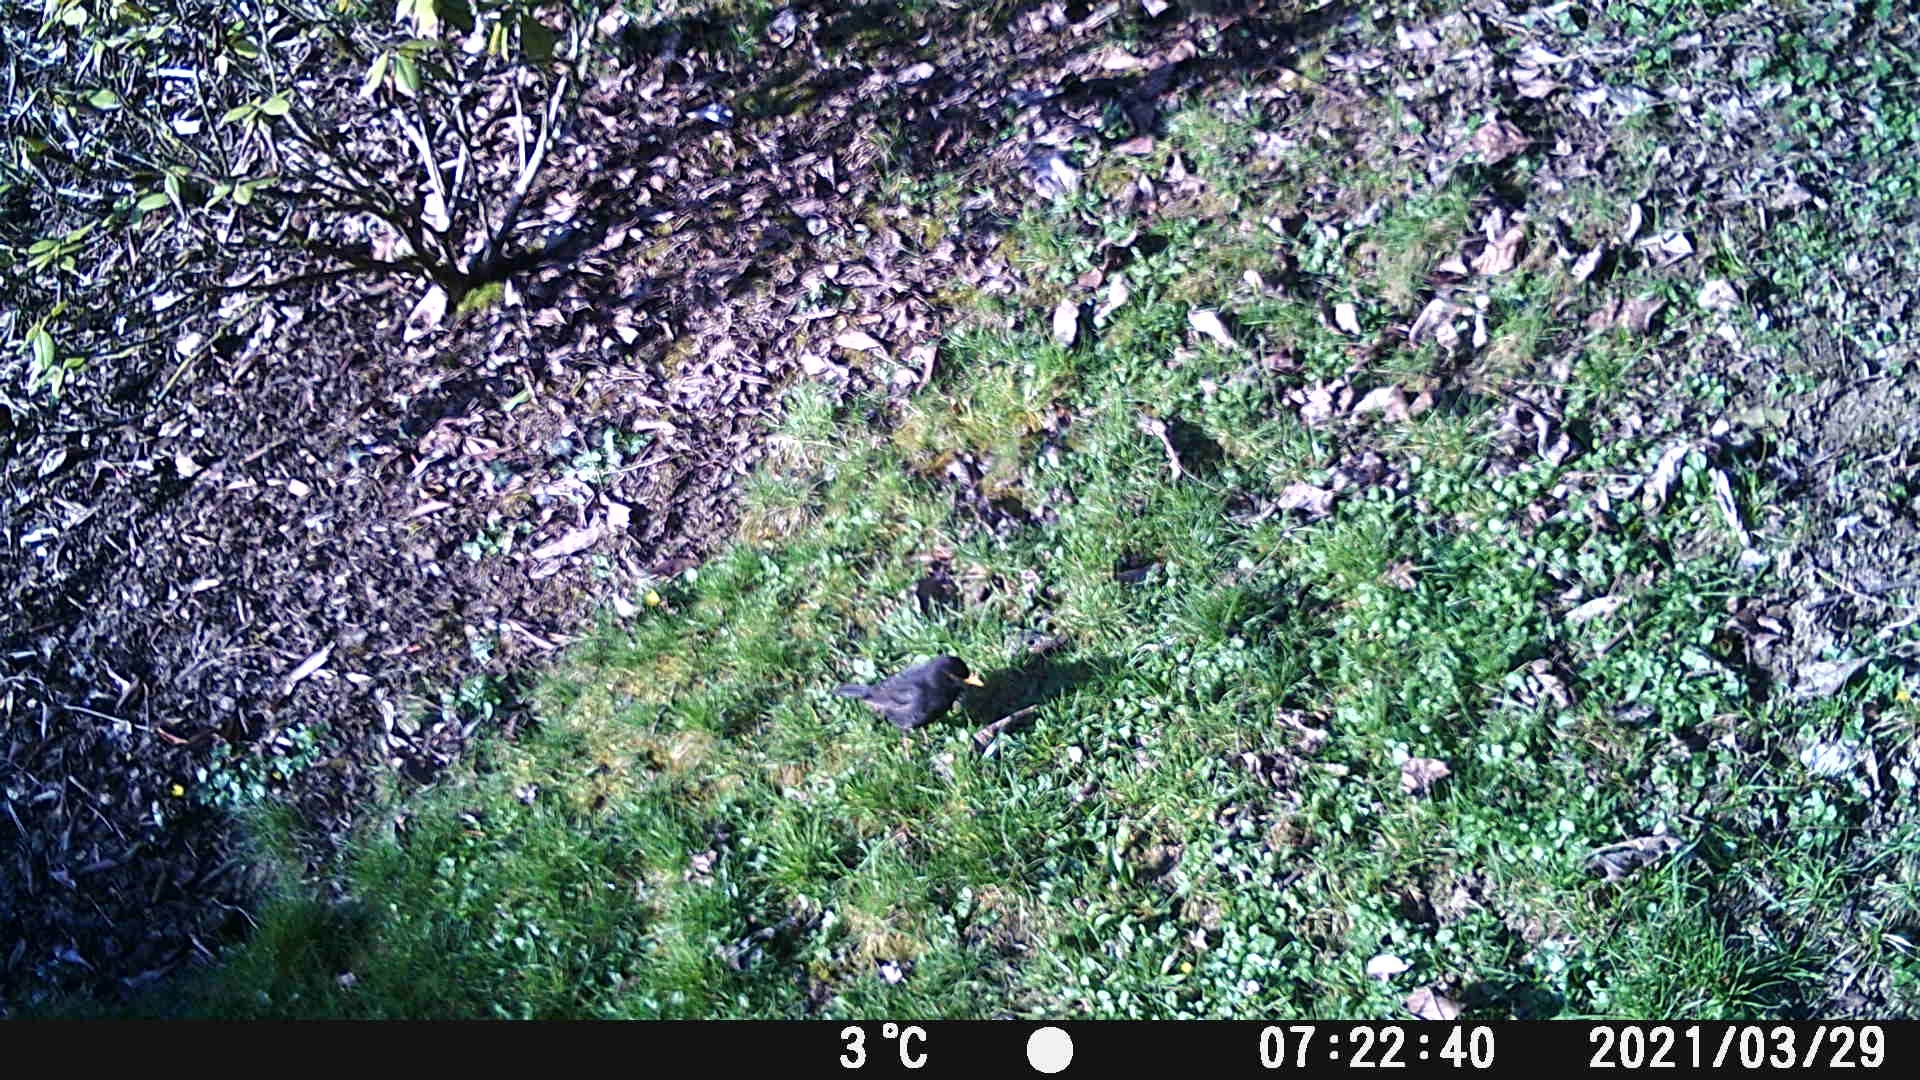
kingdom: Animalia
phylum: Chordata
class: Aves
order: Passeriformes
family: Turdidae
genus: Turdus
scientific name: Turdus merula
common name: Common blackbird
